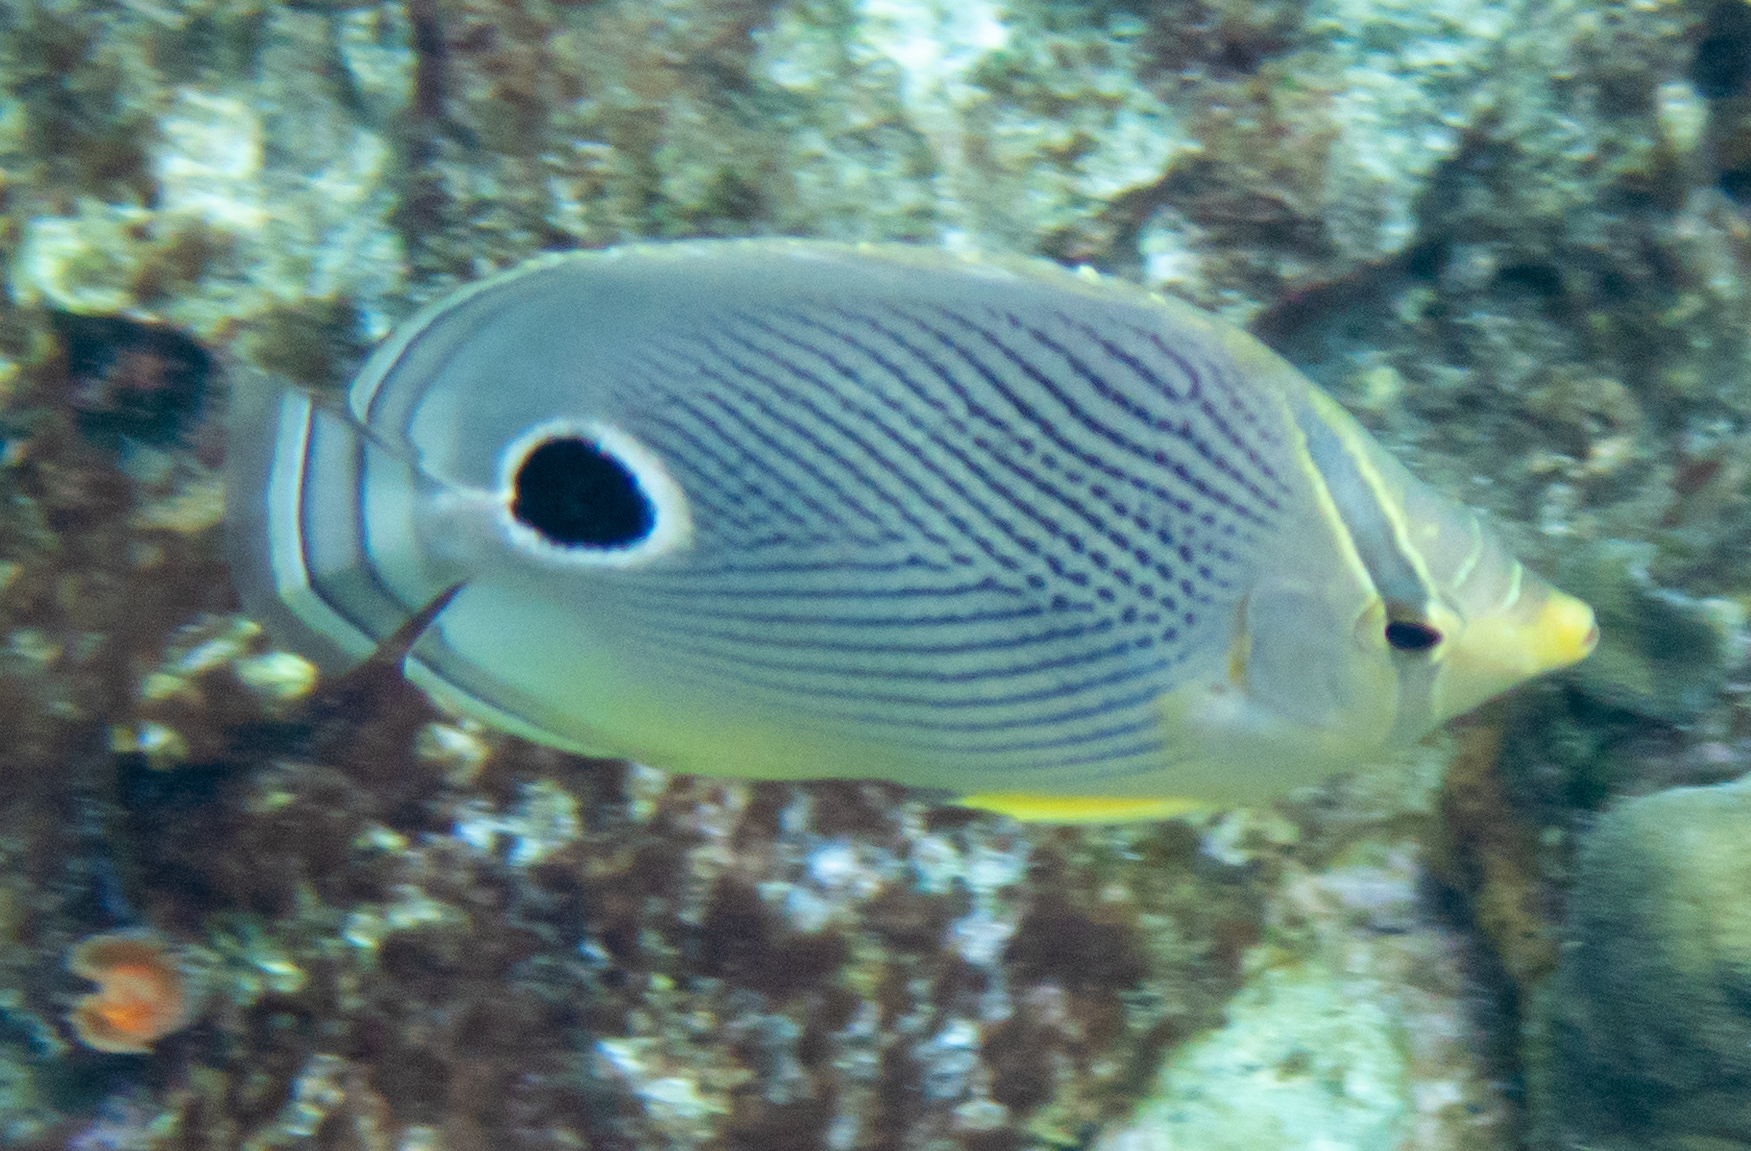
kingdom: Animalia
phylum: Chordata
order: Perciformes
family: Chaetodontidae
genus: Chaetodon
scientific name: Chaetodon capistratus
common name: Kete
